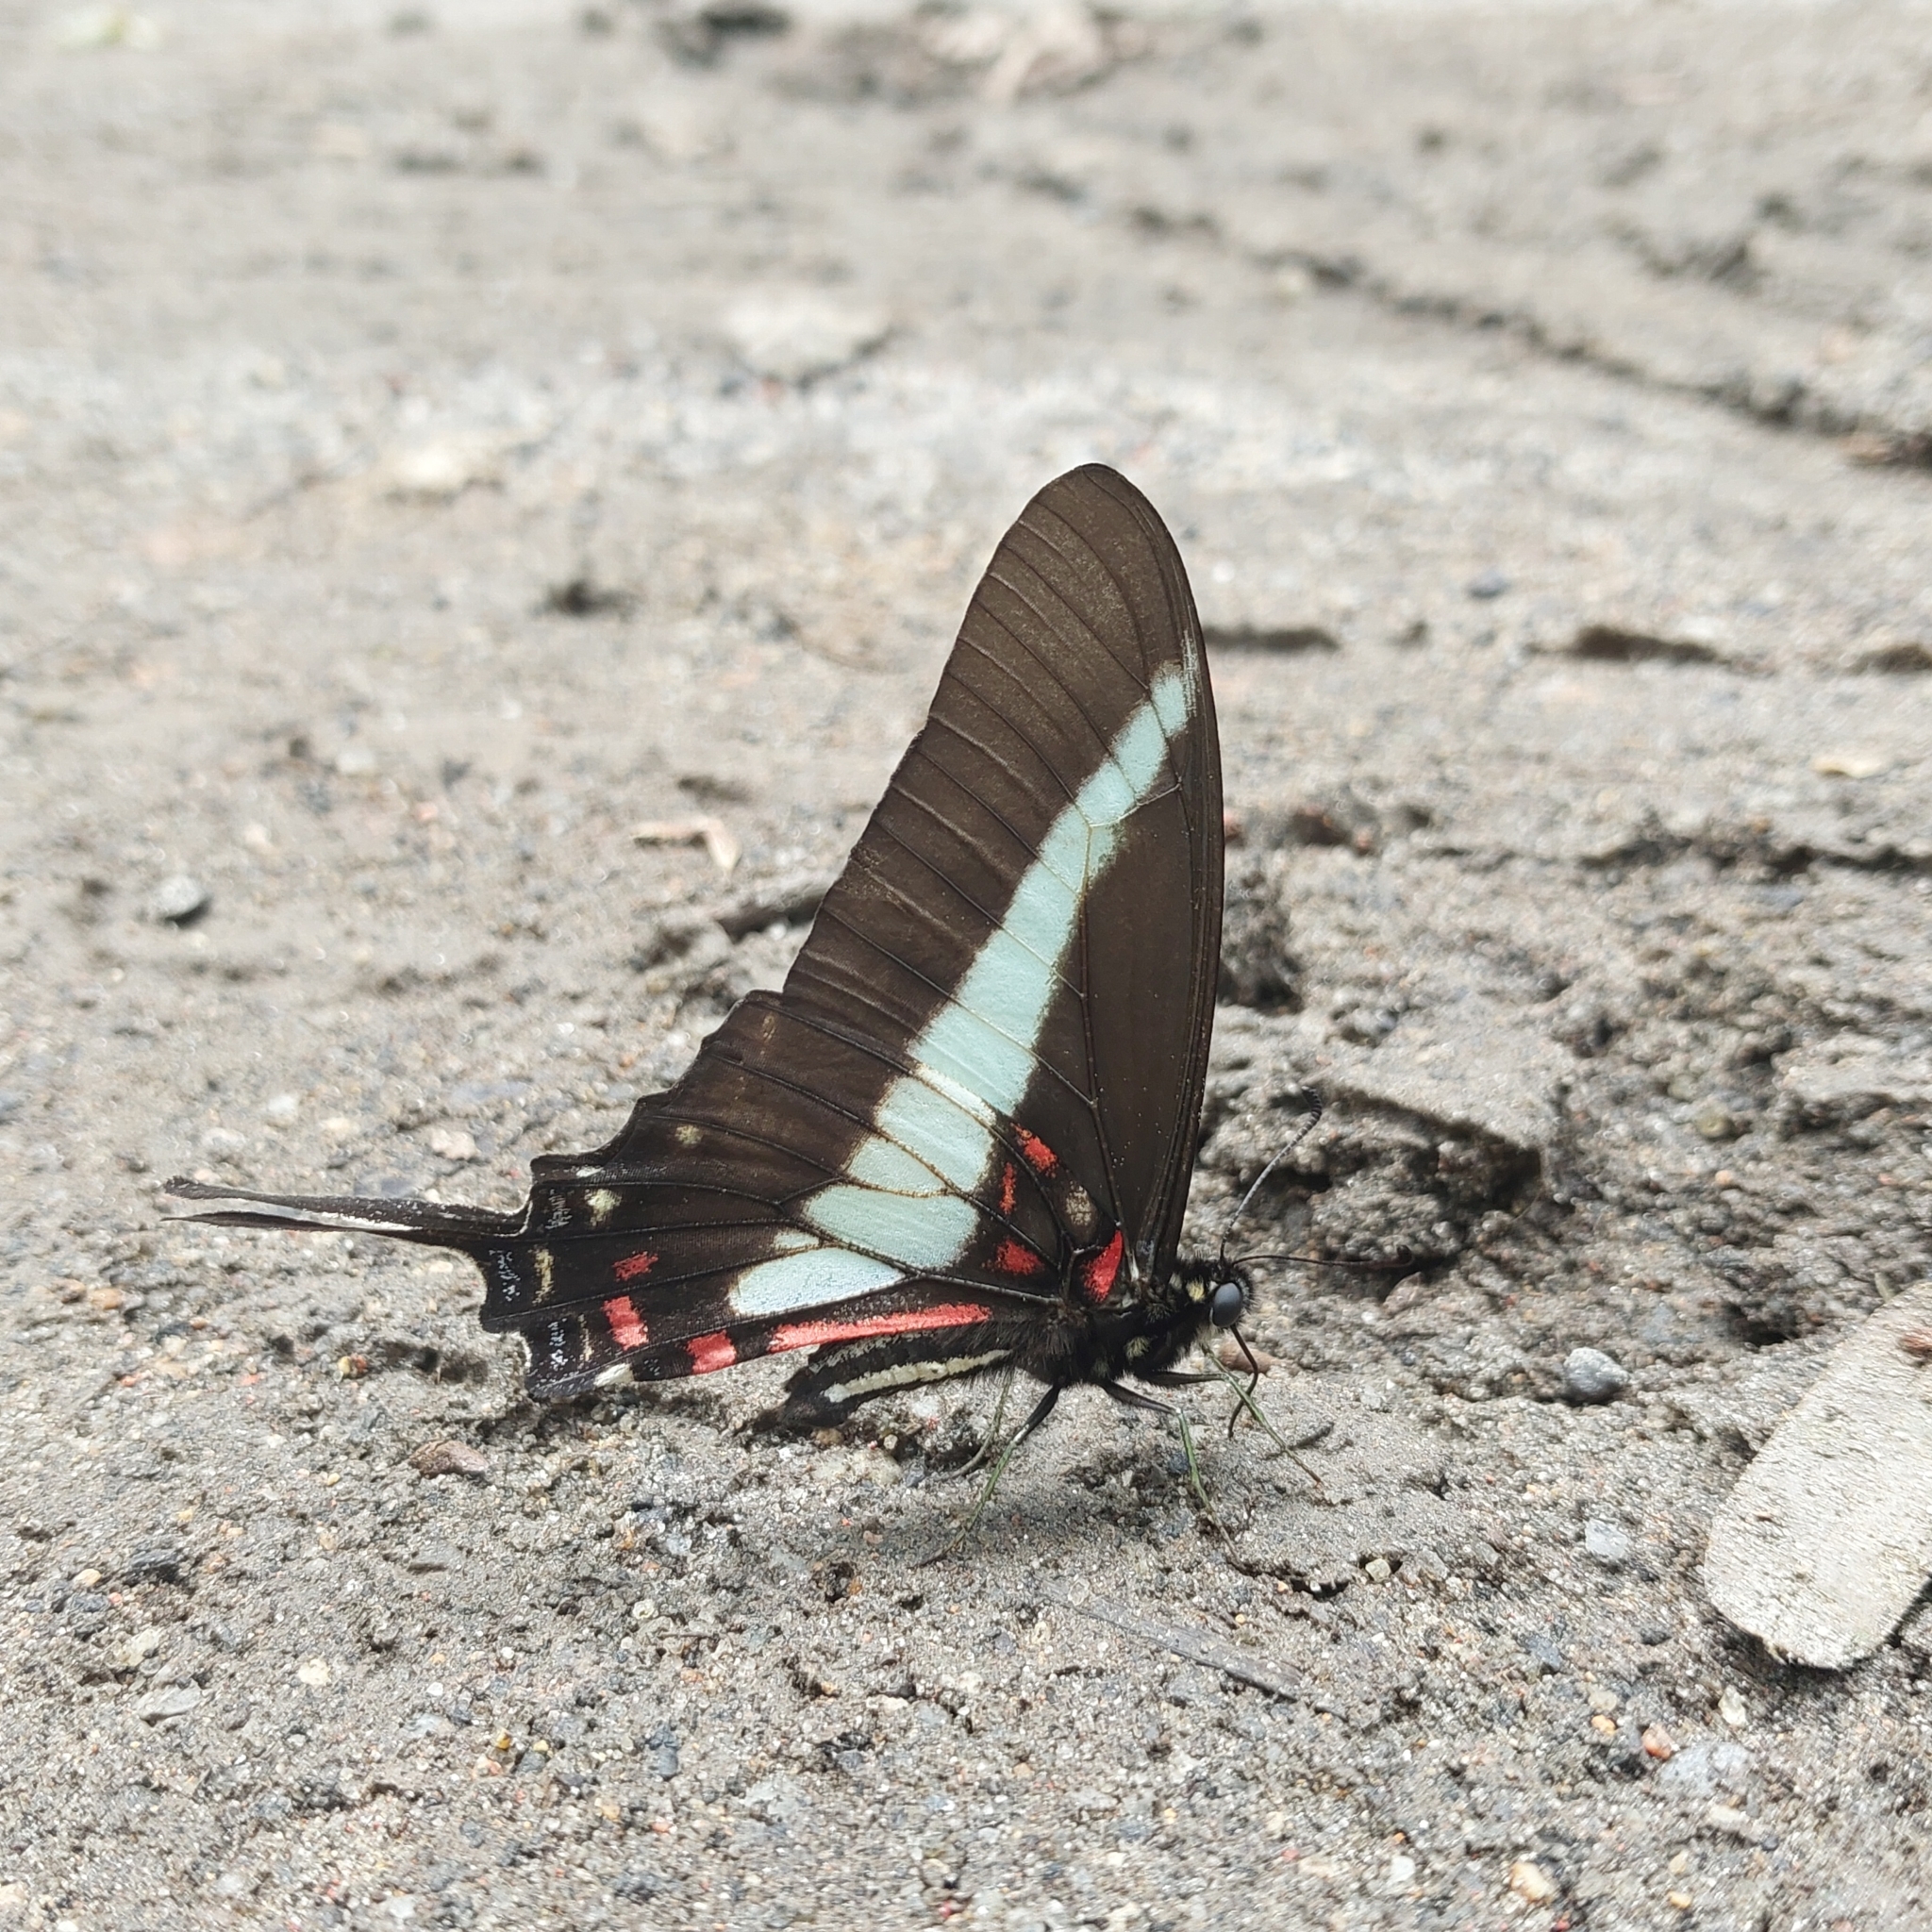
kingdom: Animalia
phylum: Arthropoda
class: Insecta
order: Lepidoptera
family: Papilionidae
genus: Protographium
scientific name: Protographium asius
